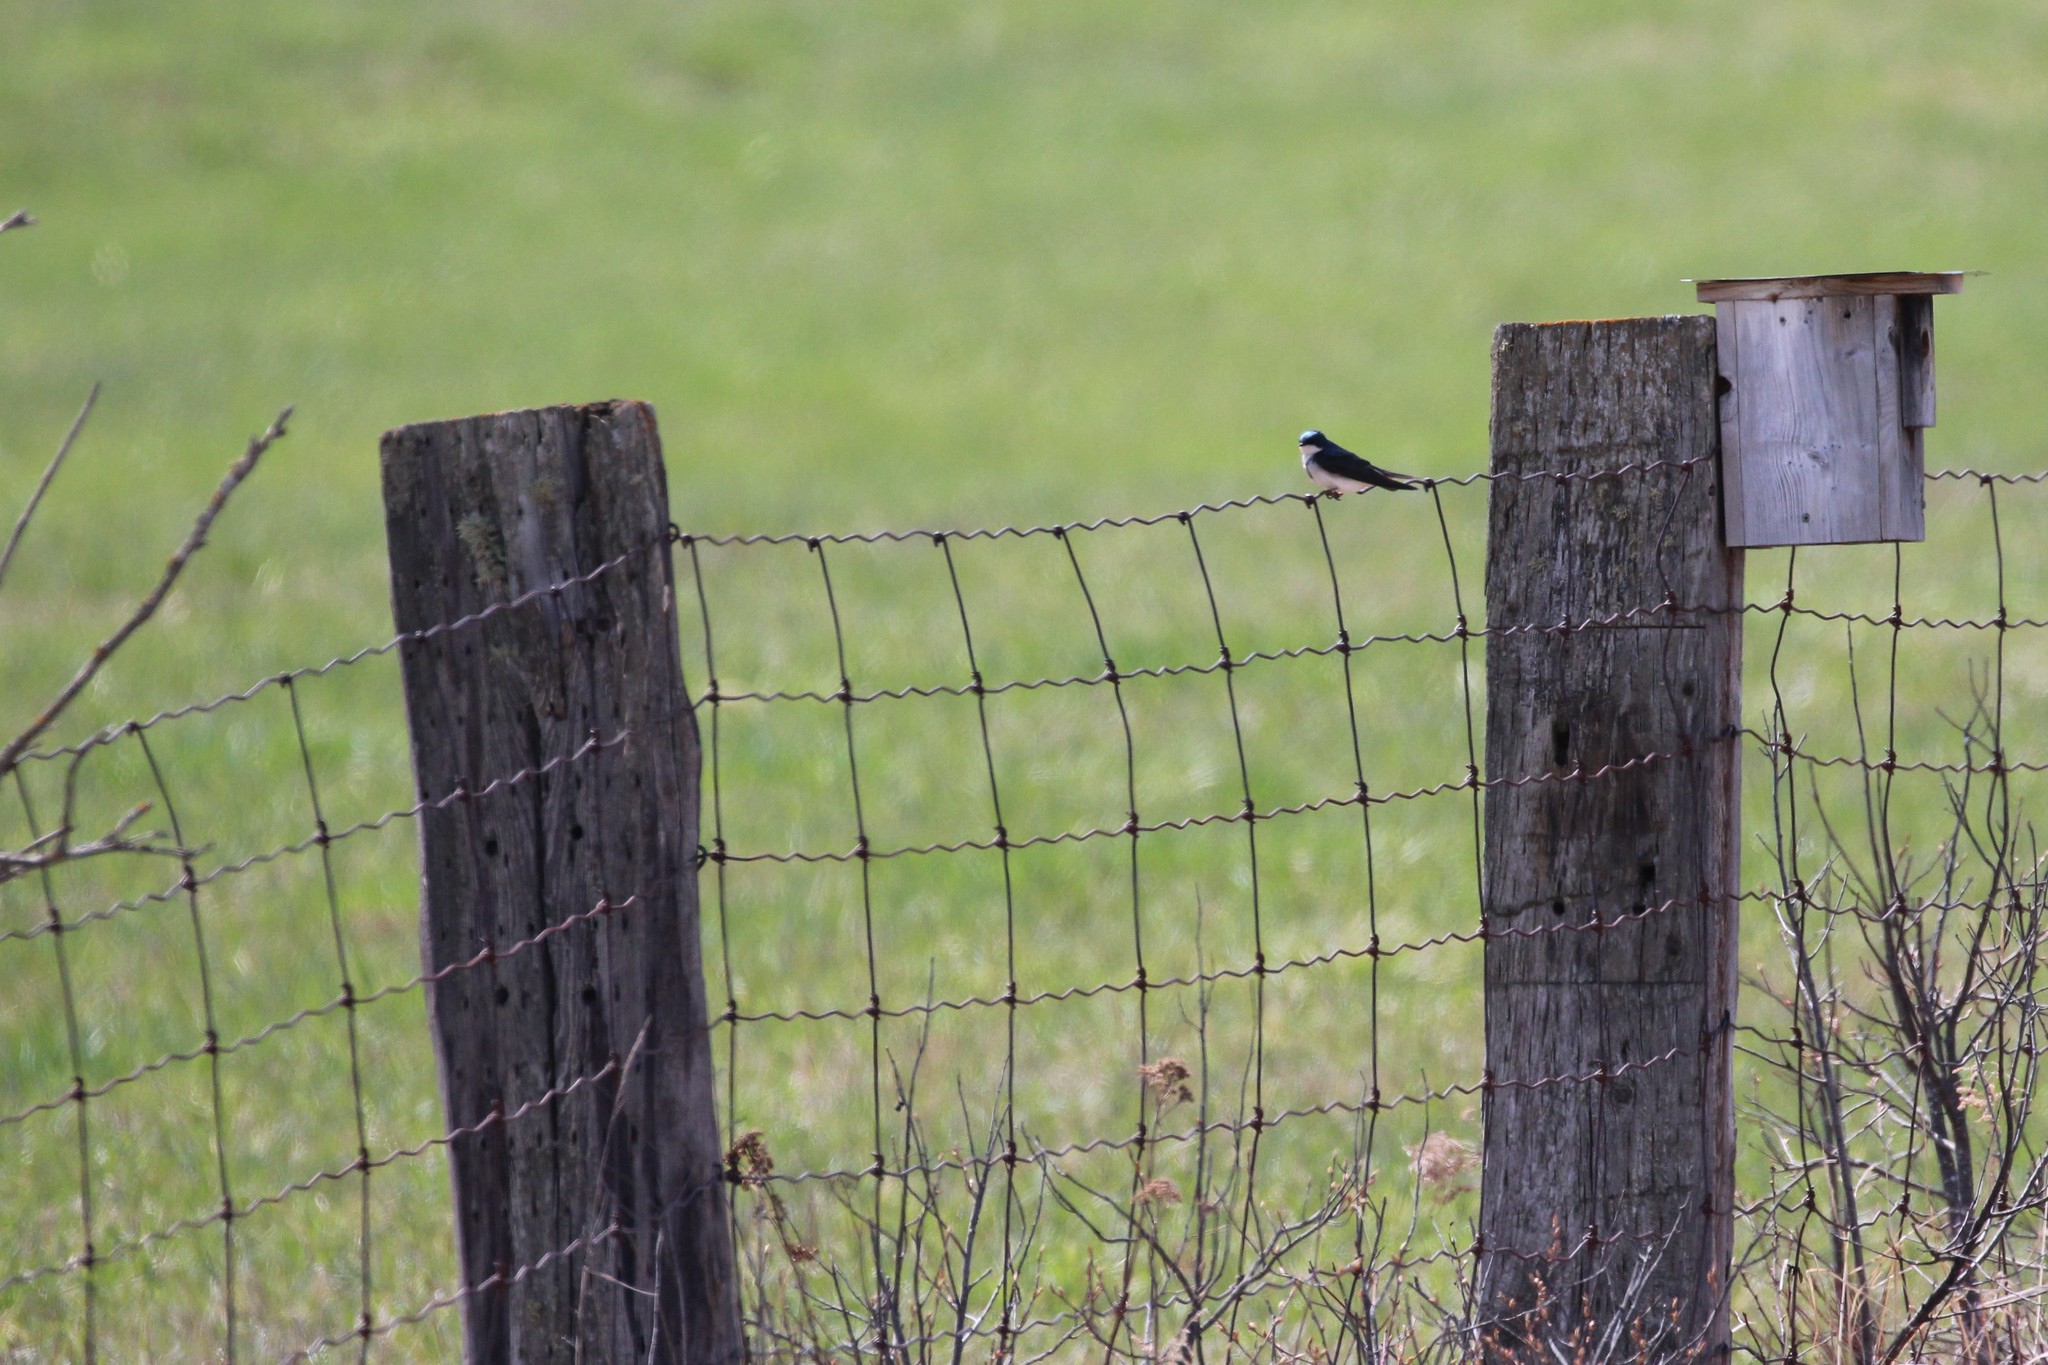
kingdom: Animalia
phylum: Chordata
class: Aves
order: Passeriformes
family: Hirundinidae
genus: Tachycineta
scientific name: Tachycineta bicolor
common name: Tree swallow
